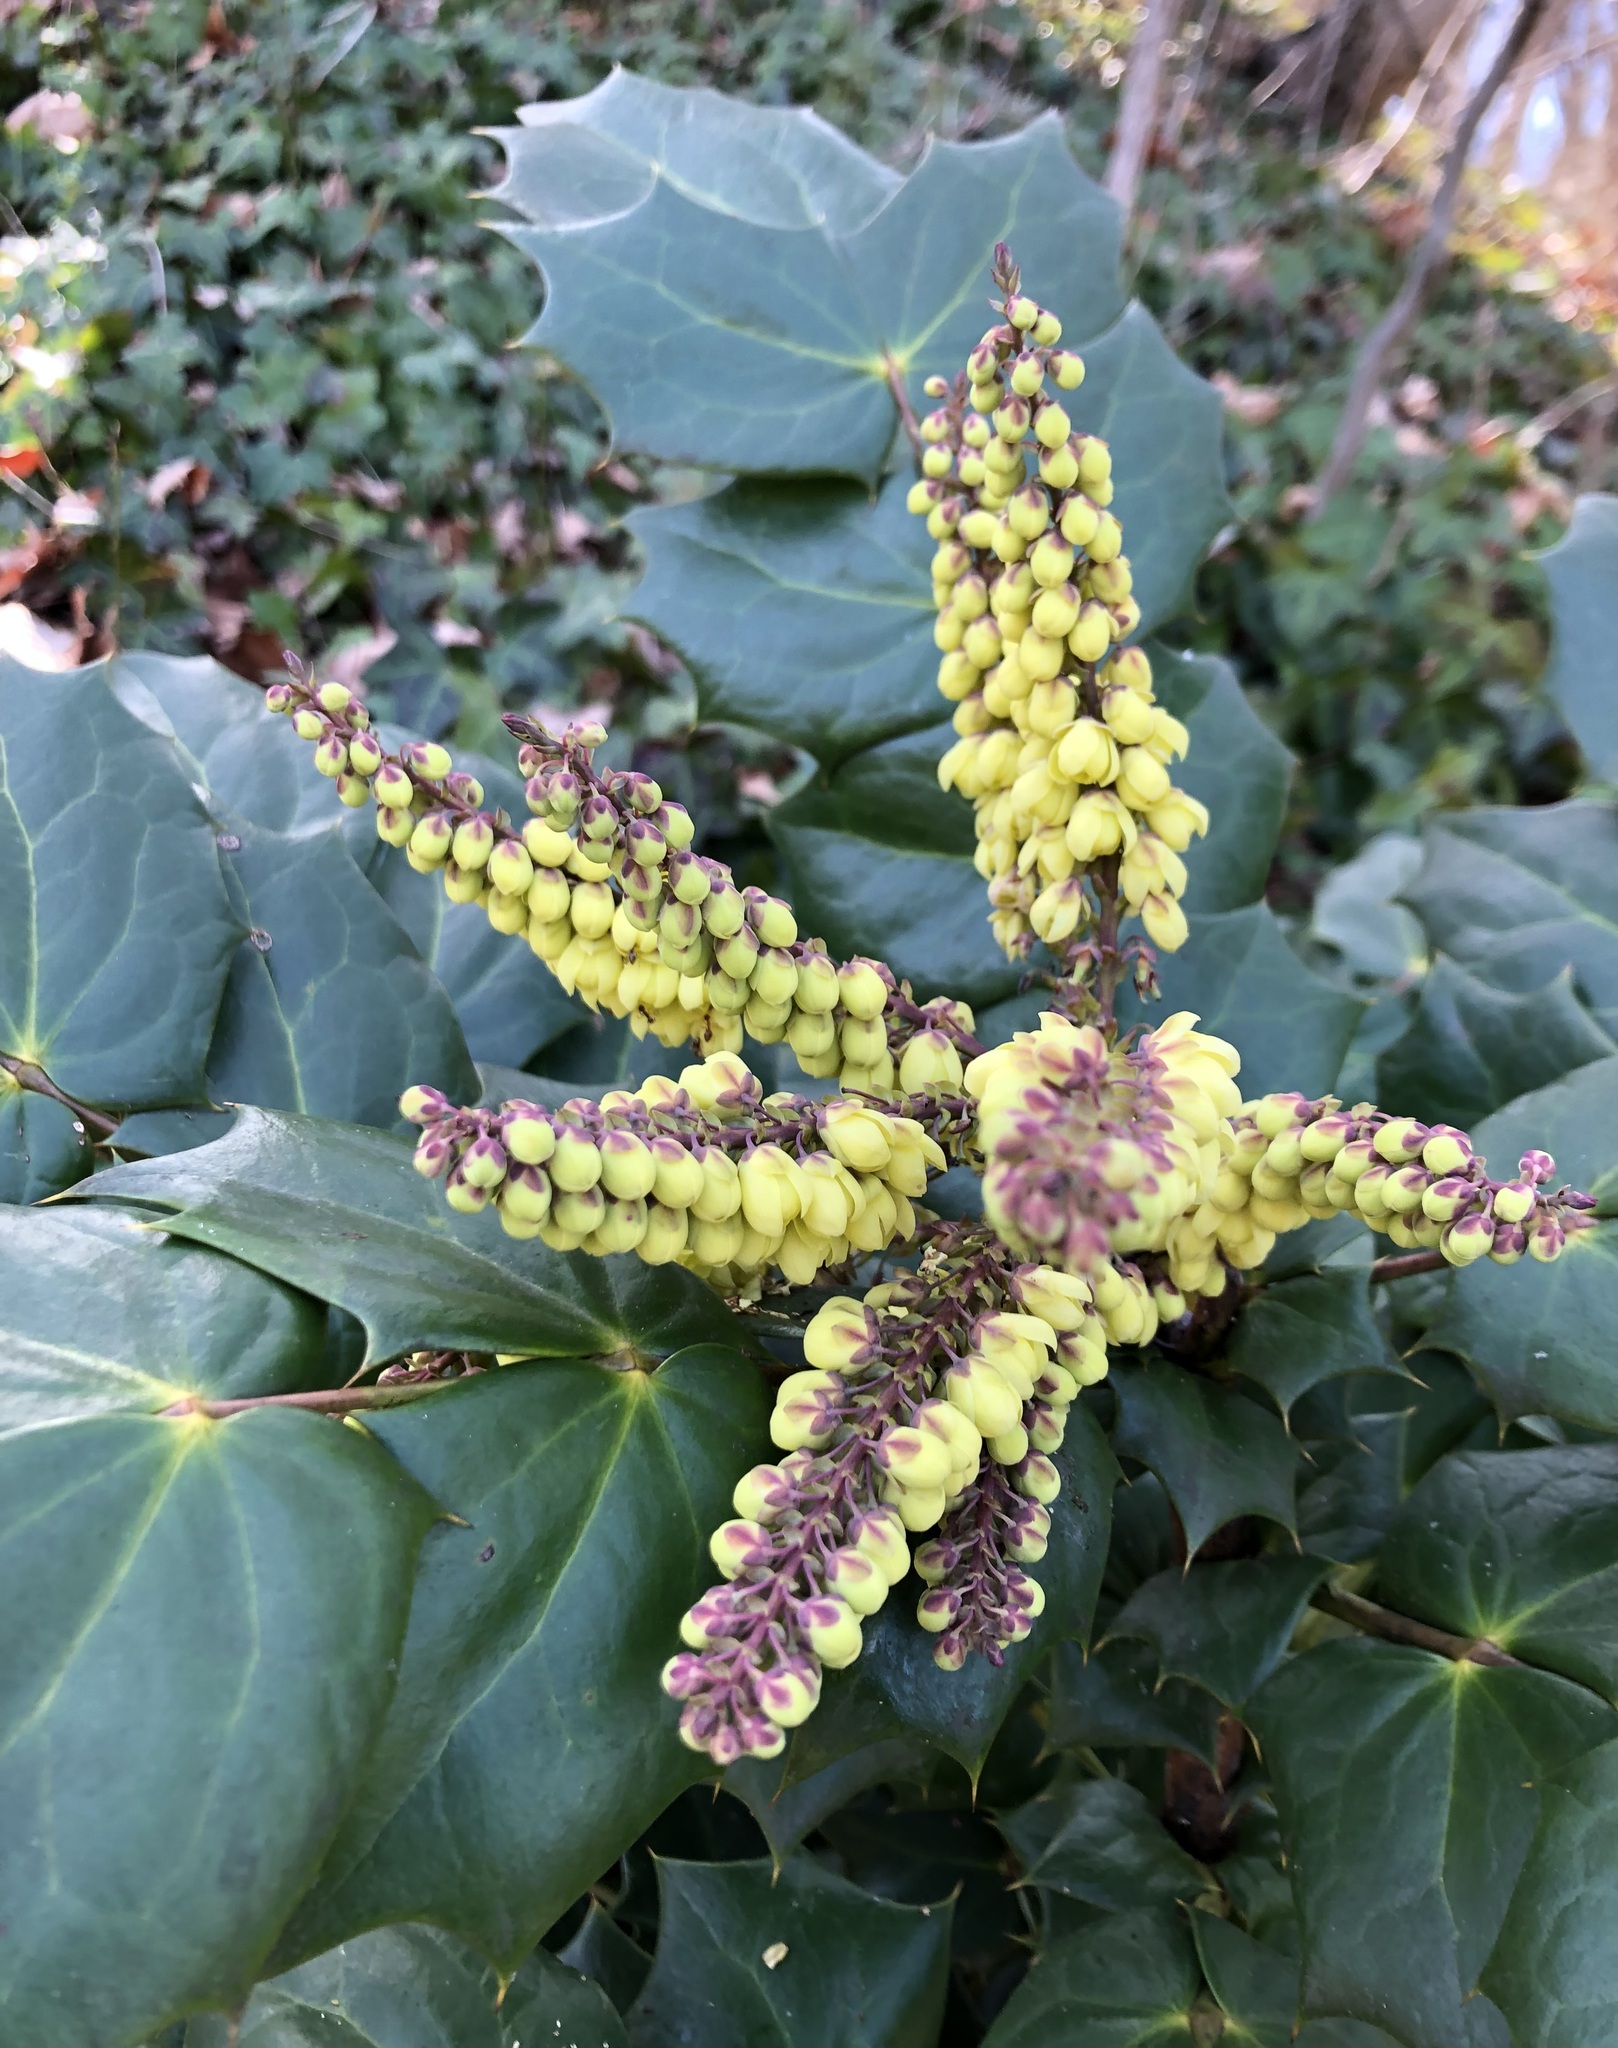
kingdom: Plantae
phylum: Tracheophyta
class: Magnoliopsida
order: Ranunculales
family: Berberidaceae
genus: Mahonia
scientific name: Mahonia bealei
